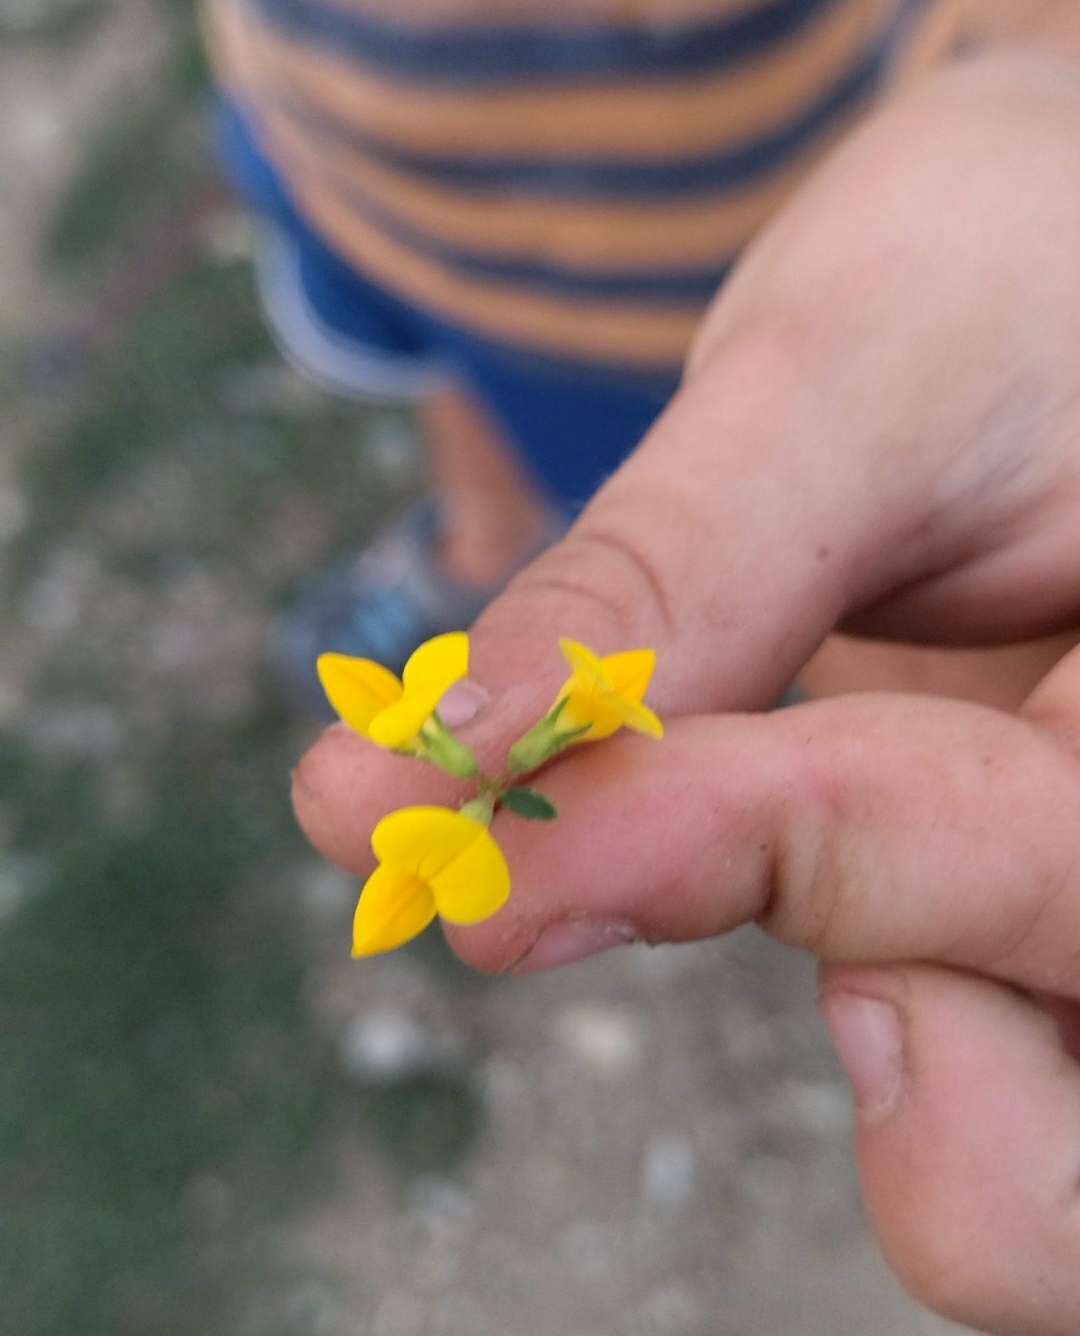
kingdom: Plantae
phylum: Tracheophyta
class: Magnoliopsida
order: Fabales
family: Fabaceae
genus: Lotus
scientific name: Lotus corniculatus
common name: Common bird's-foot-trefoil
